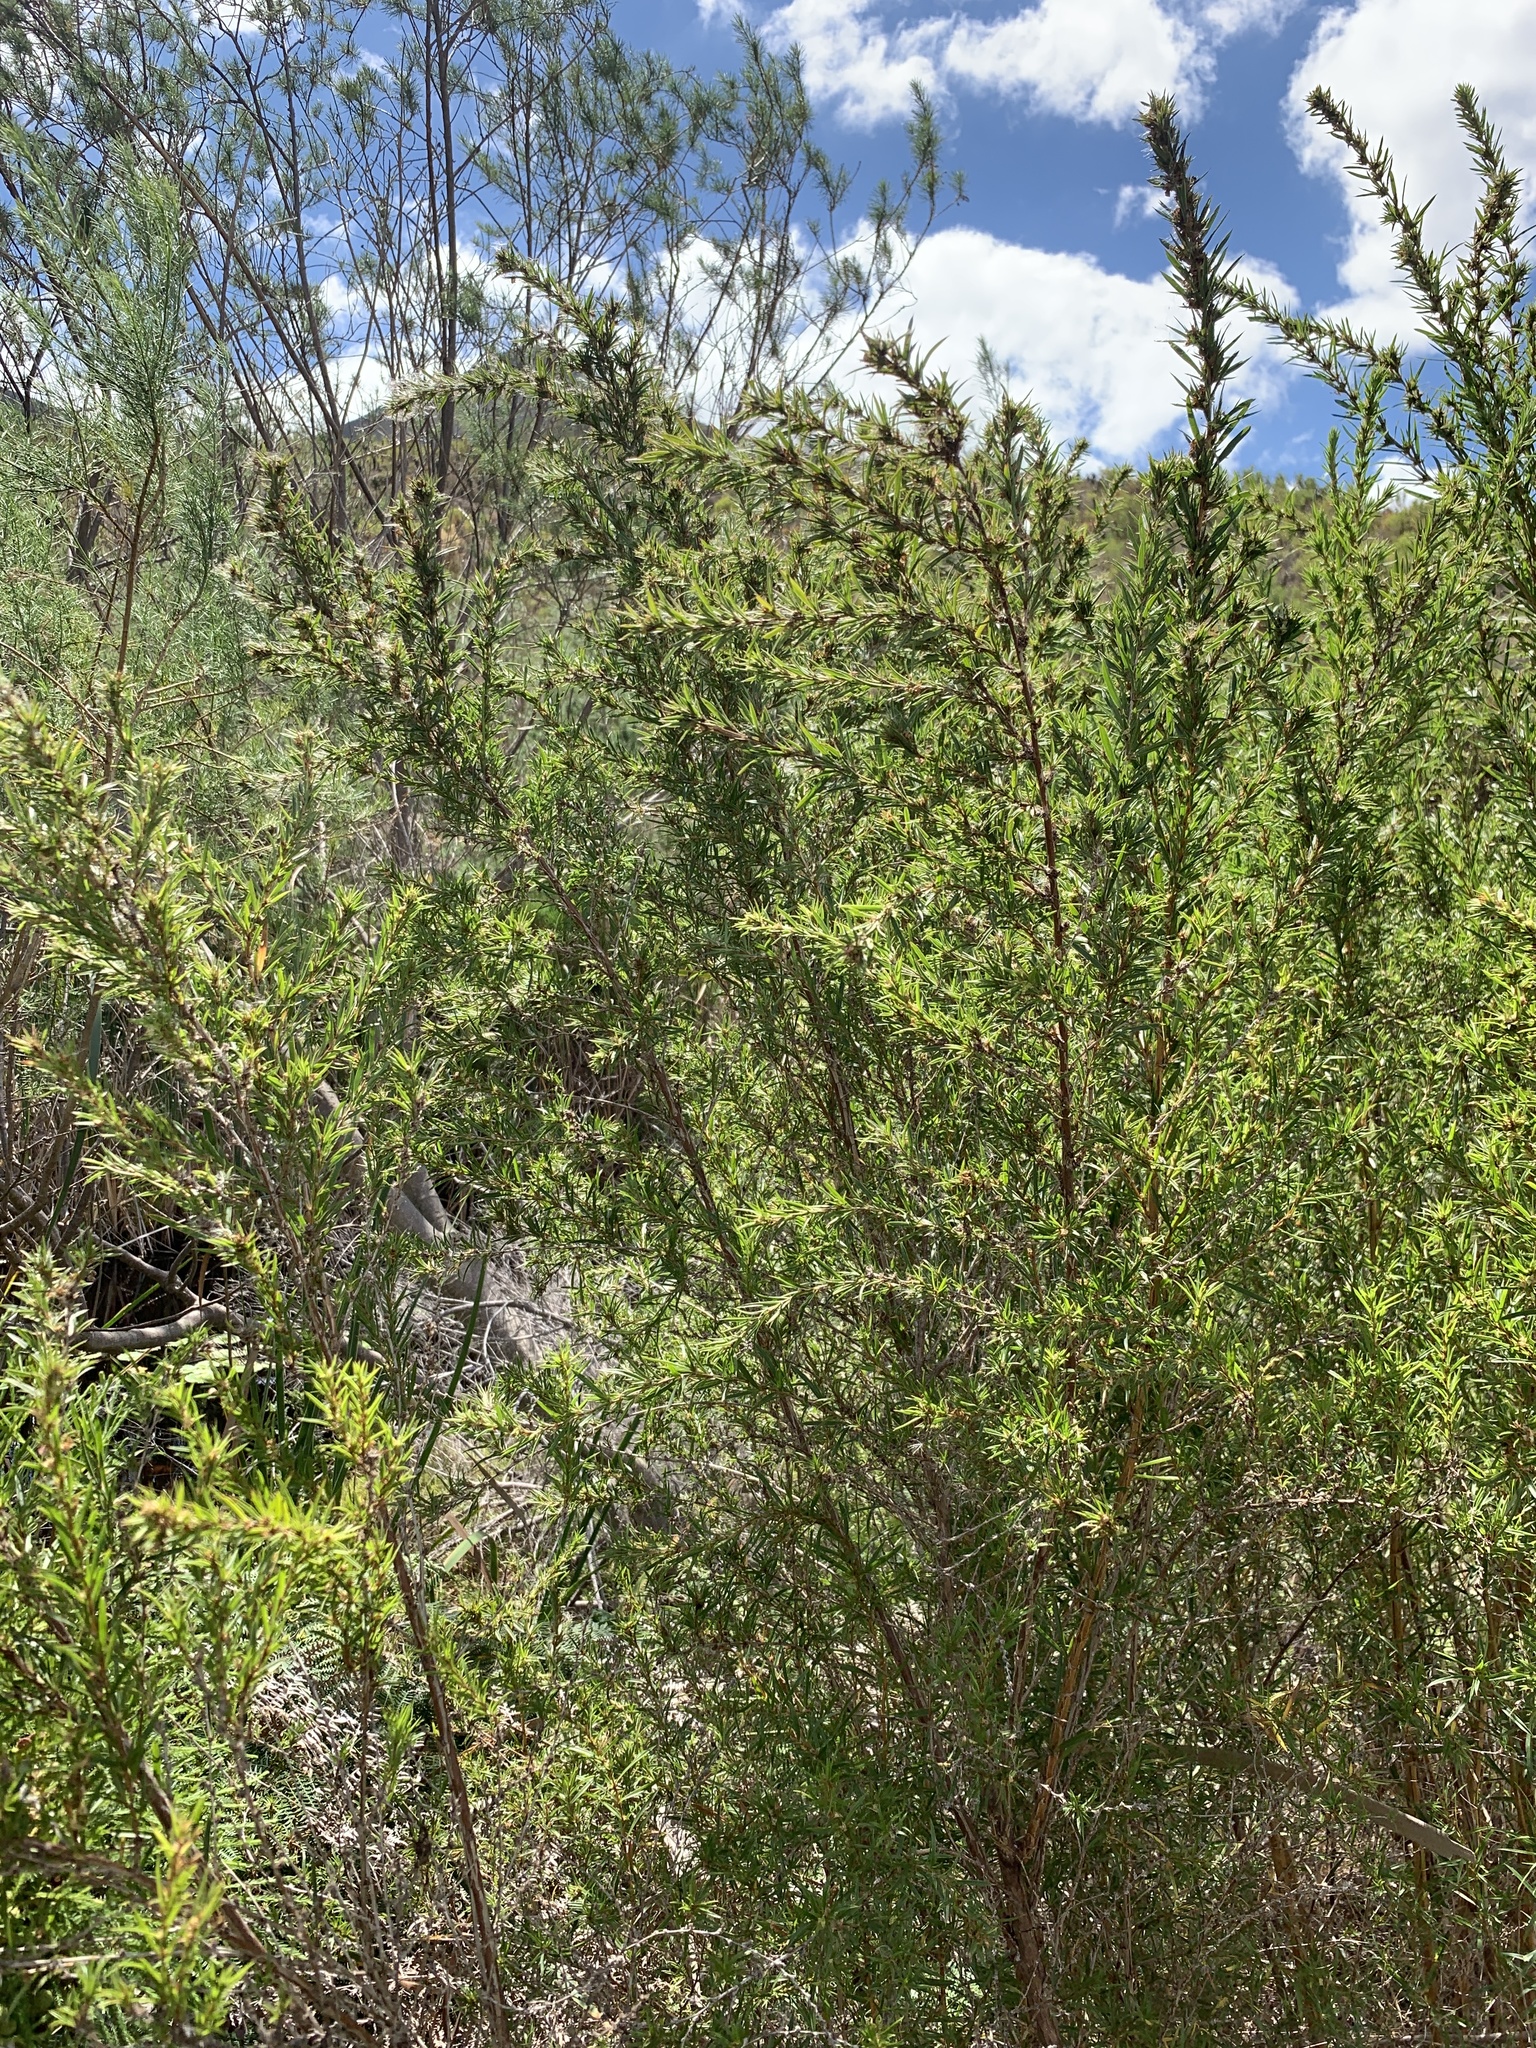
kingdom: Plantae
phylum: Tracheophyta
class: Magnoliopsida
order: Rosales
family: Rosaceae
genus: Cliffortia
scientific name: Cliffortia strobilifera
